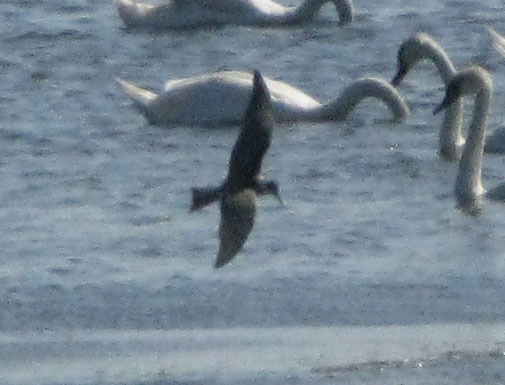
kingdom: Animalia
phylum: Chordata
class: Aves
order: Charadriiformes
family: Laridae
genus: Chlidonias
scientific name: Chlidonias niger
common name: Black tern
